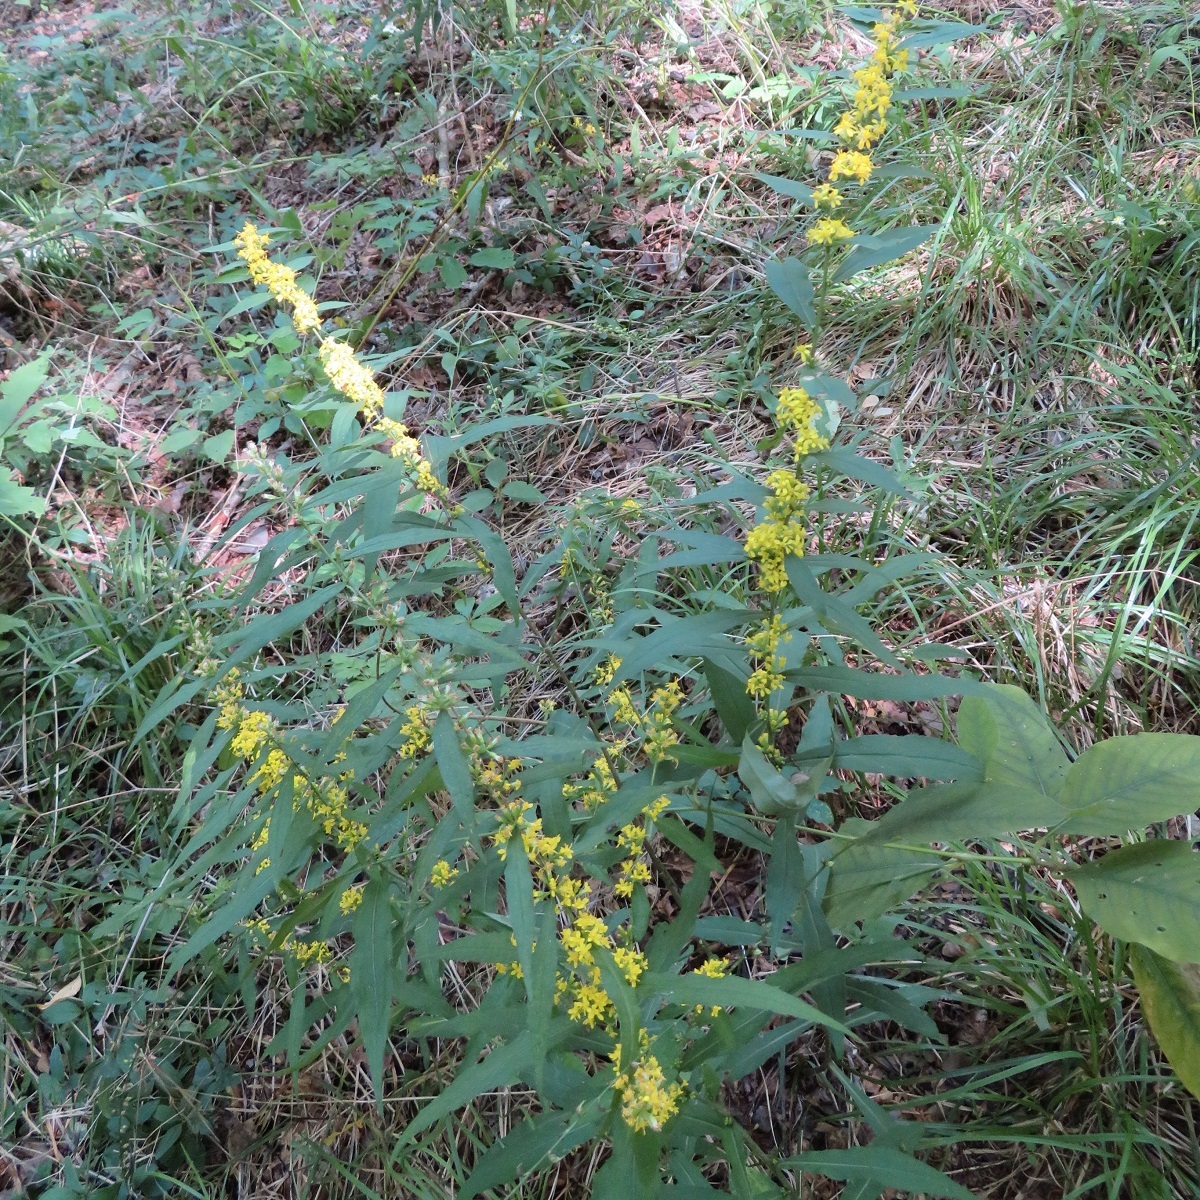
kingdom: Plantae
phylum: Tracheophyta
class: Magnoliopsida
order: Asterales
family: Asteraceae
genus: Solidago
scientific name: Solidago caesia
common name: Woodland goldenrod
